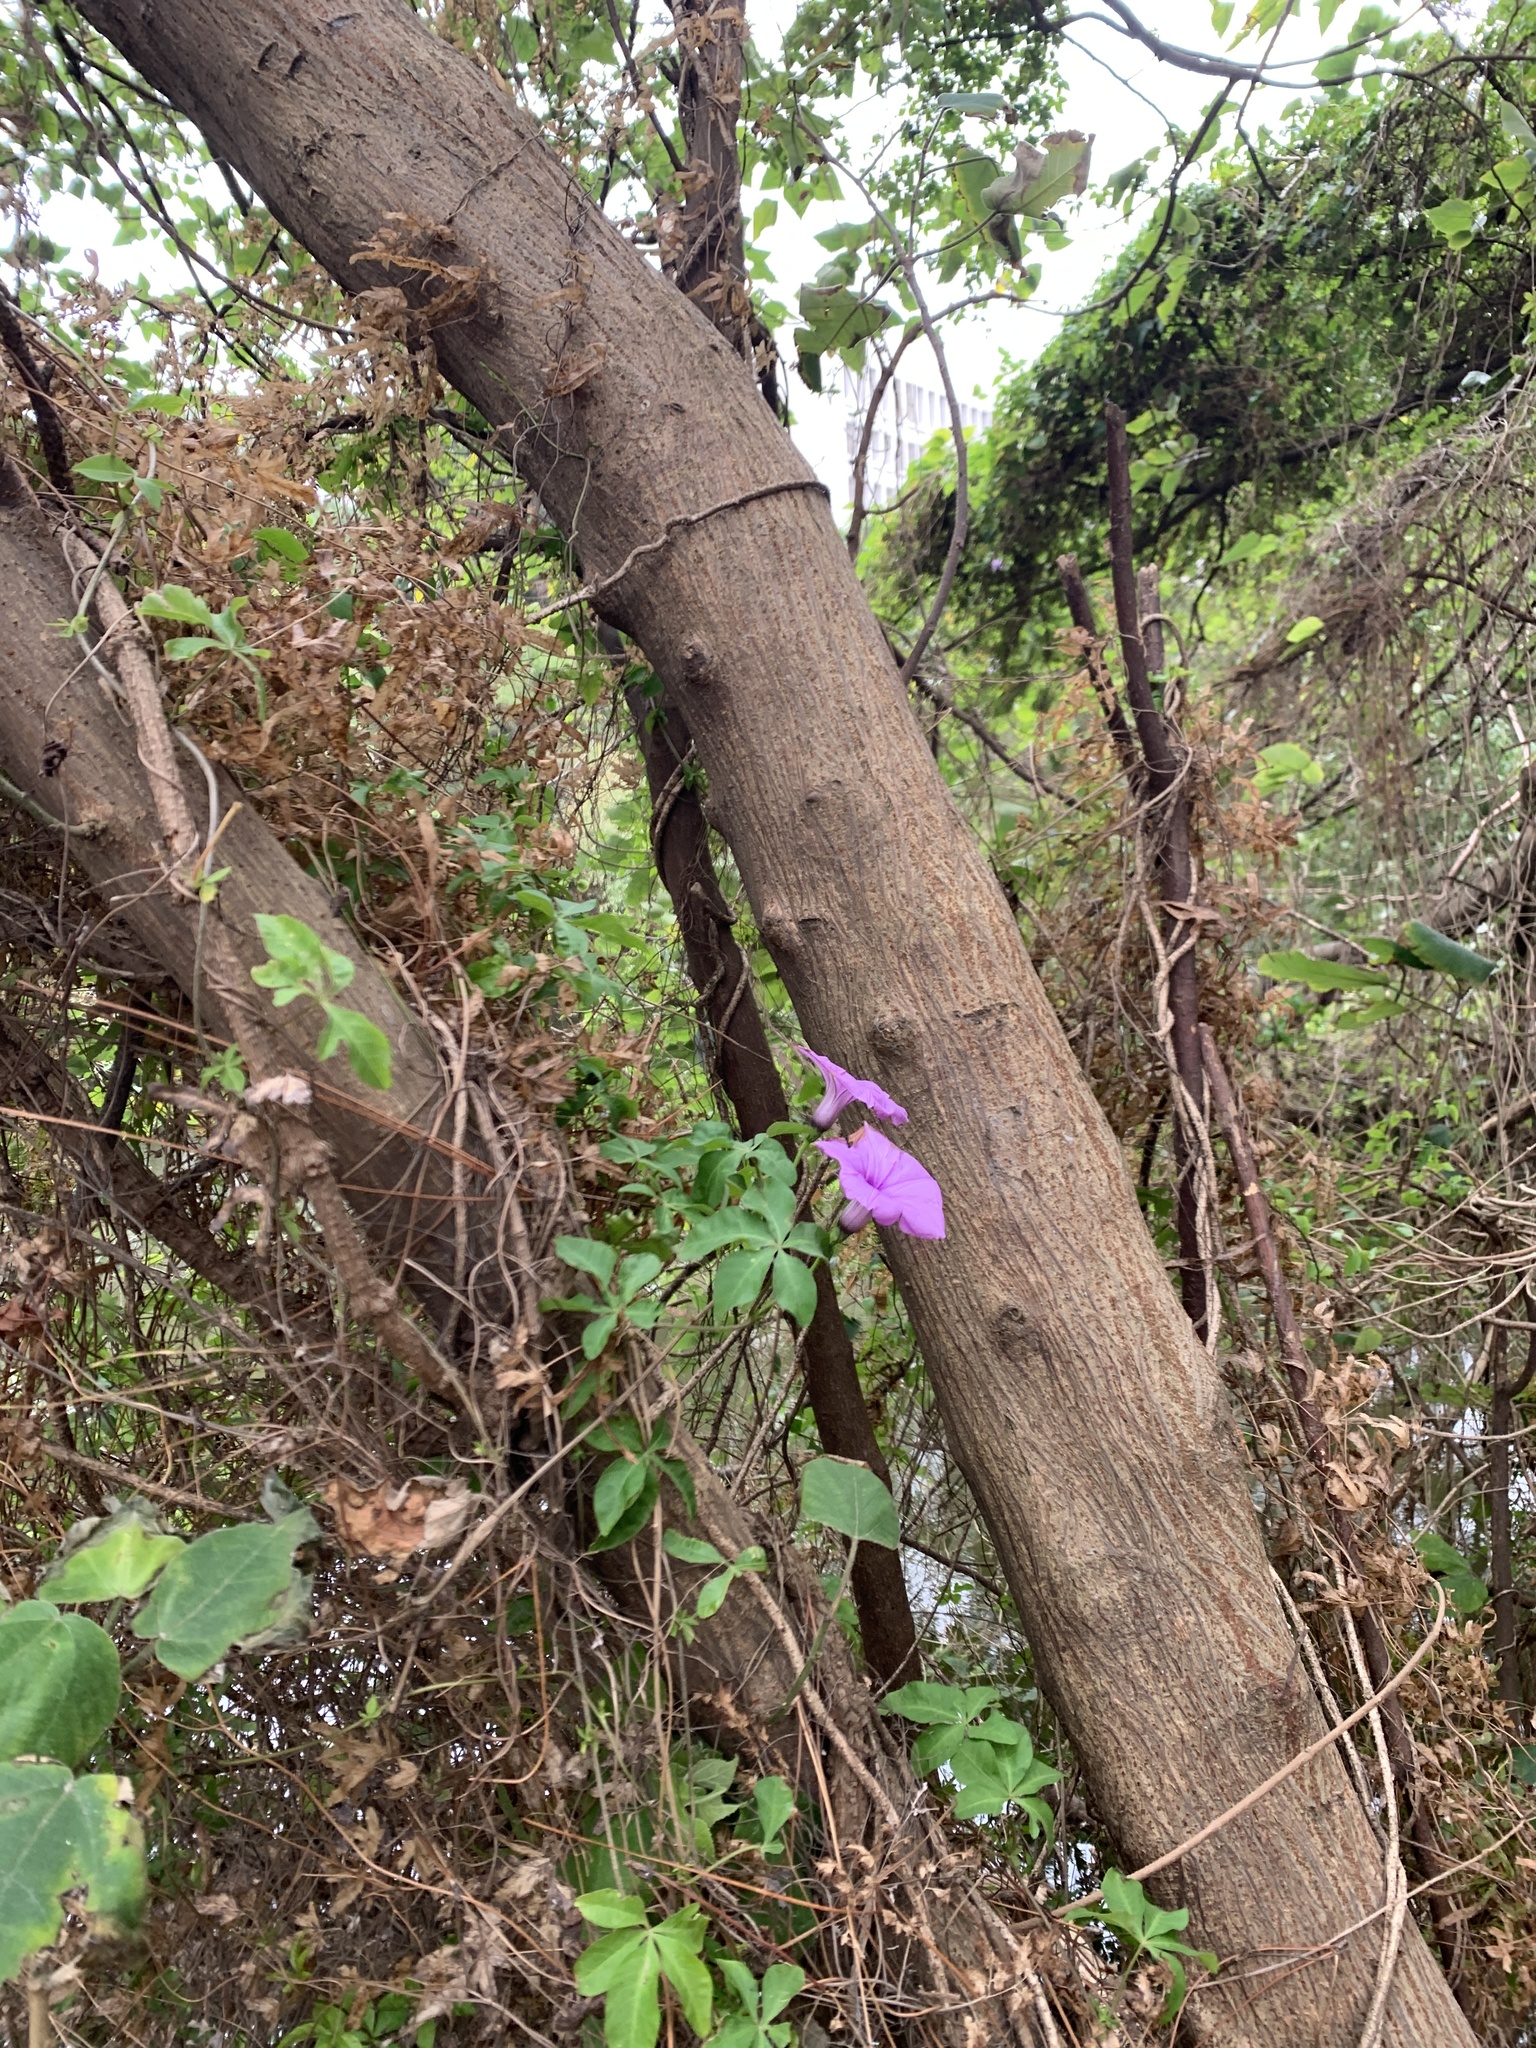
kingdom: Plantae
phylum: Tracheophyta
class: Magnoliopsida
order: Solanales
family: Convolvulaceae
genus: Ipomoea
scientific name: Ipomoea cairica
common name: Mile a minute vine
